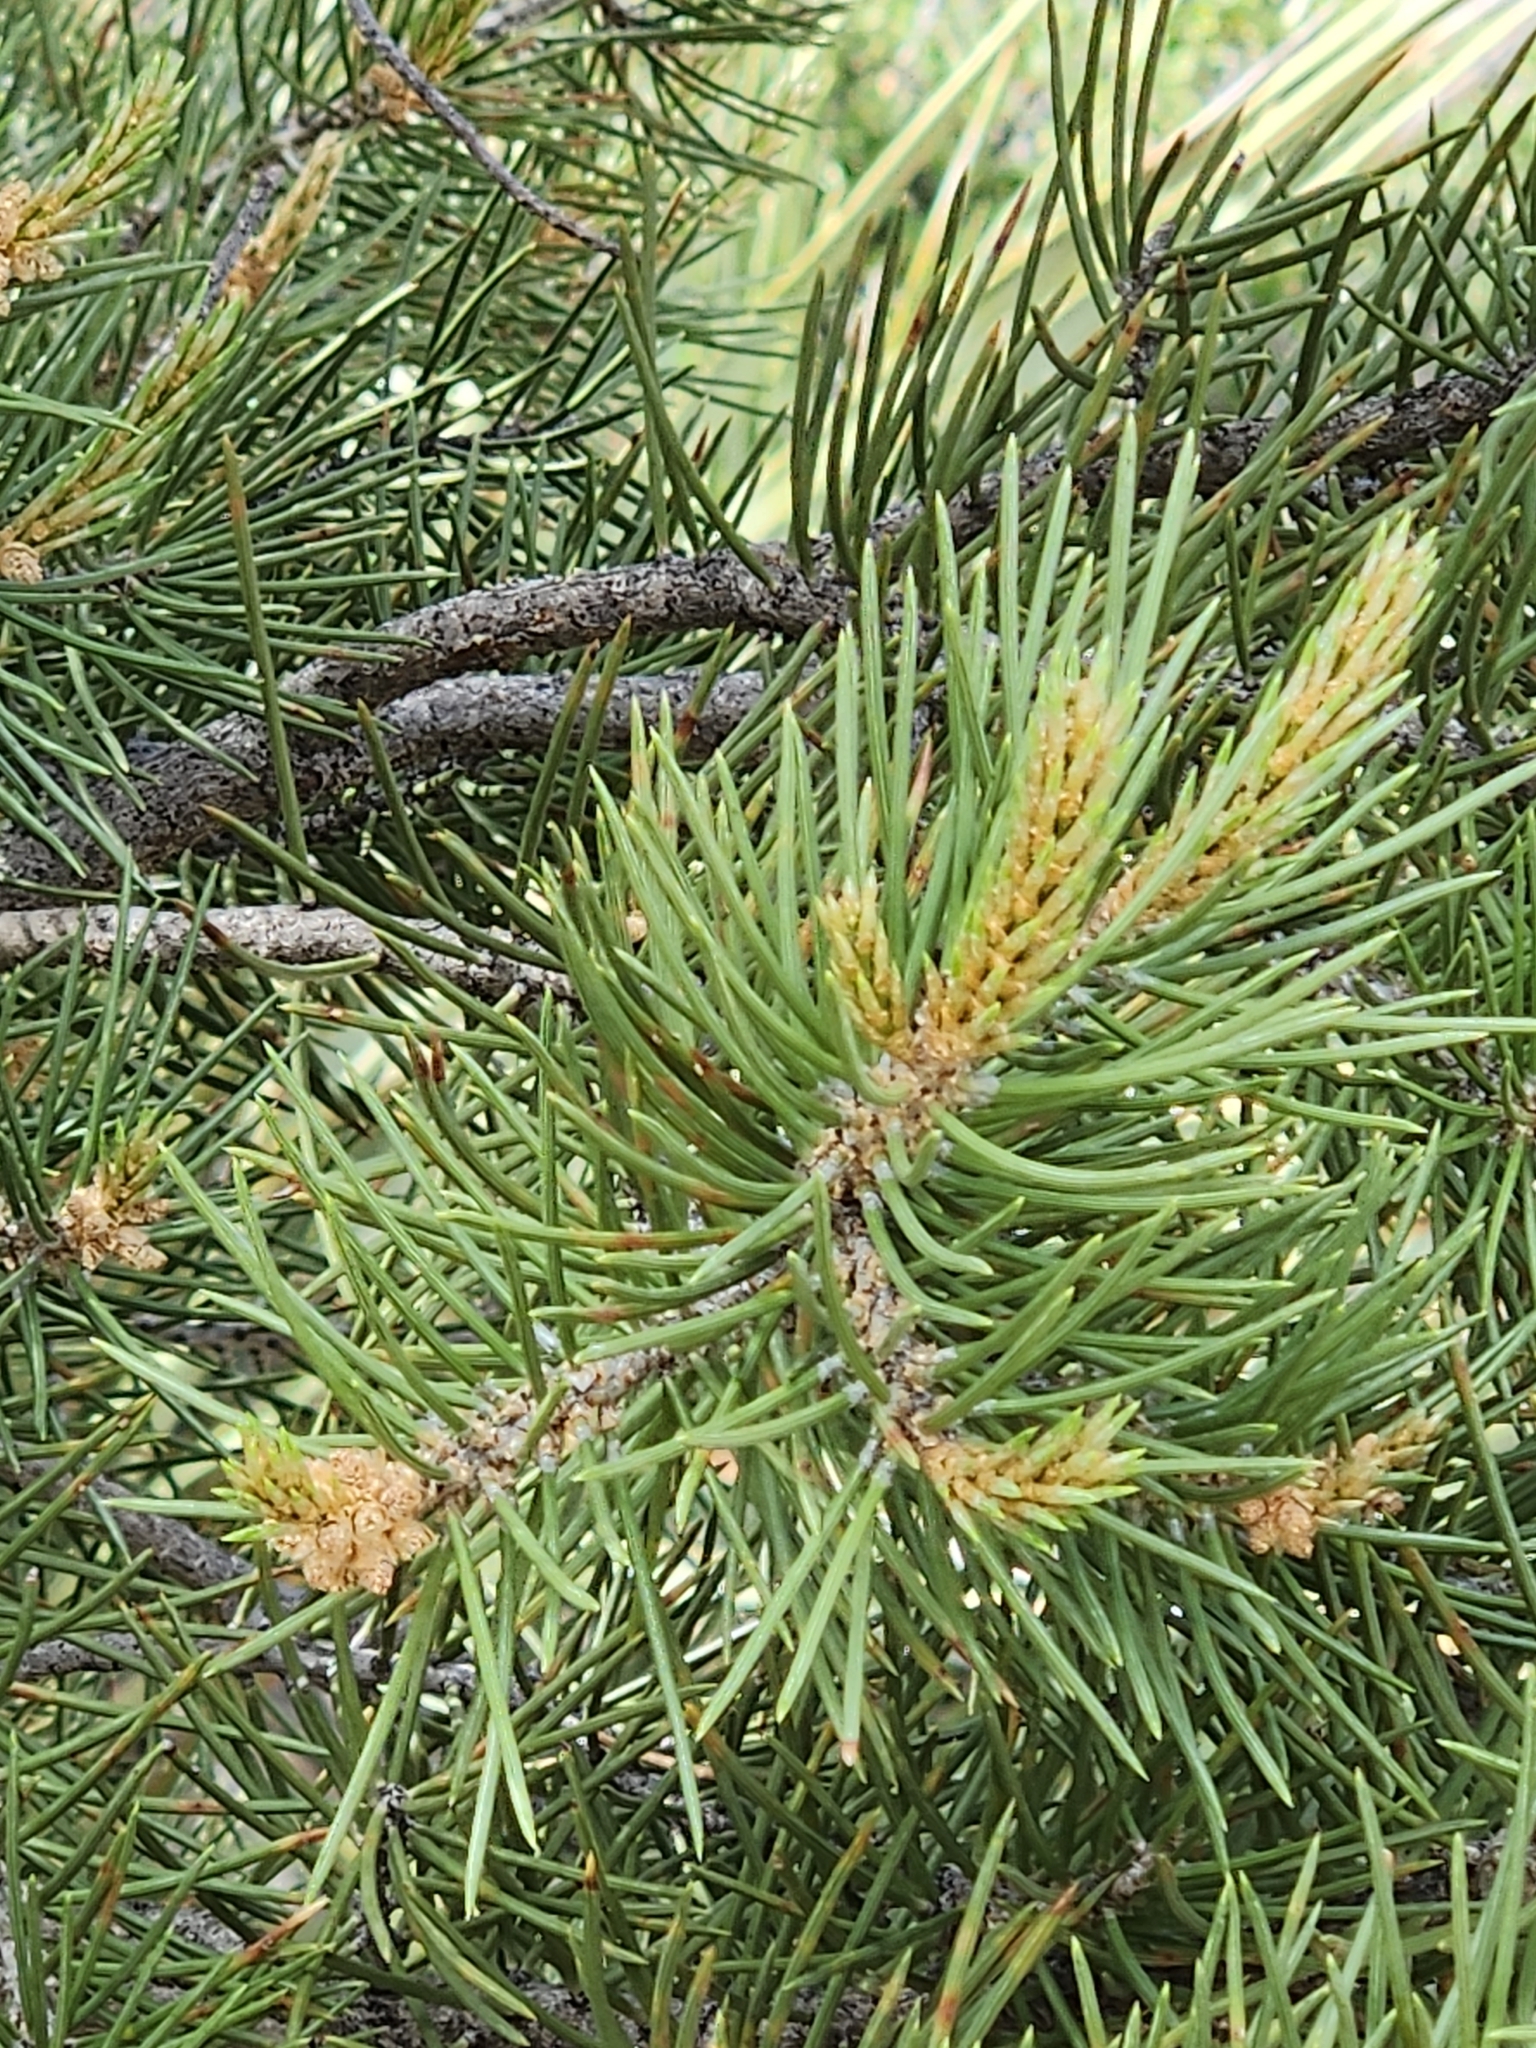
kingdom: Plantae
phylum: Tracheophyta
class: Pinopsida
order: Pinales
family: Pinaceae
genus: Pinus
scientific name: Pinus monophylla
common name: One-leaved nut pine
